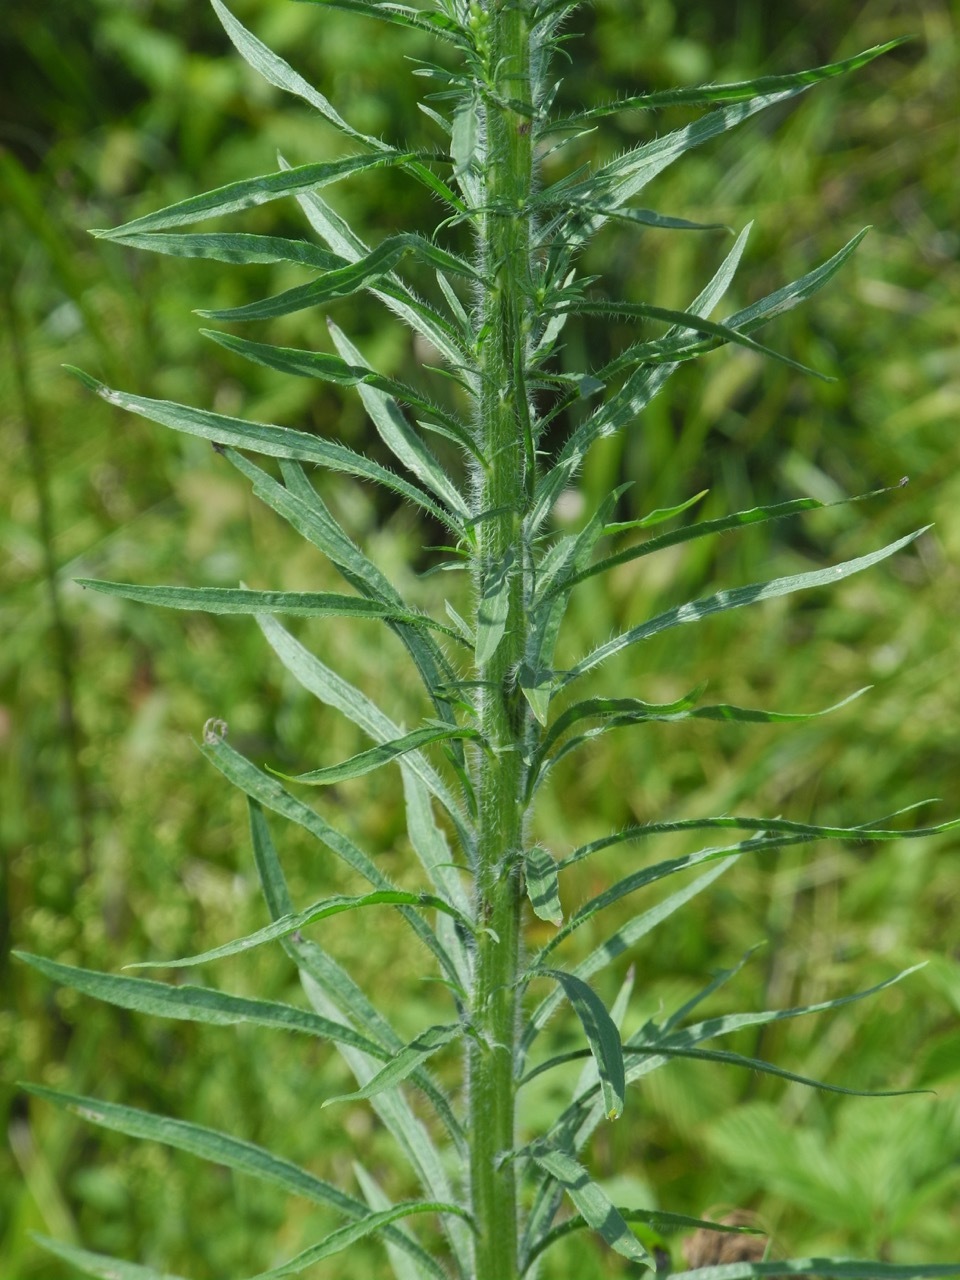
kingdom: Plantae
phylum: Tracheophyta
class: Magnoliopsida
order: Asterales
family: Asteraceae
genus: Erigeron
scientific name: Erigeron canadensis
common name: Canadian fleabane
